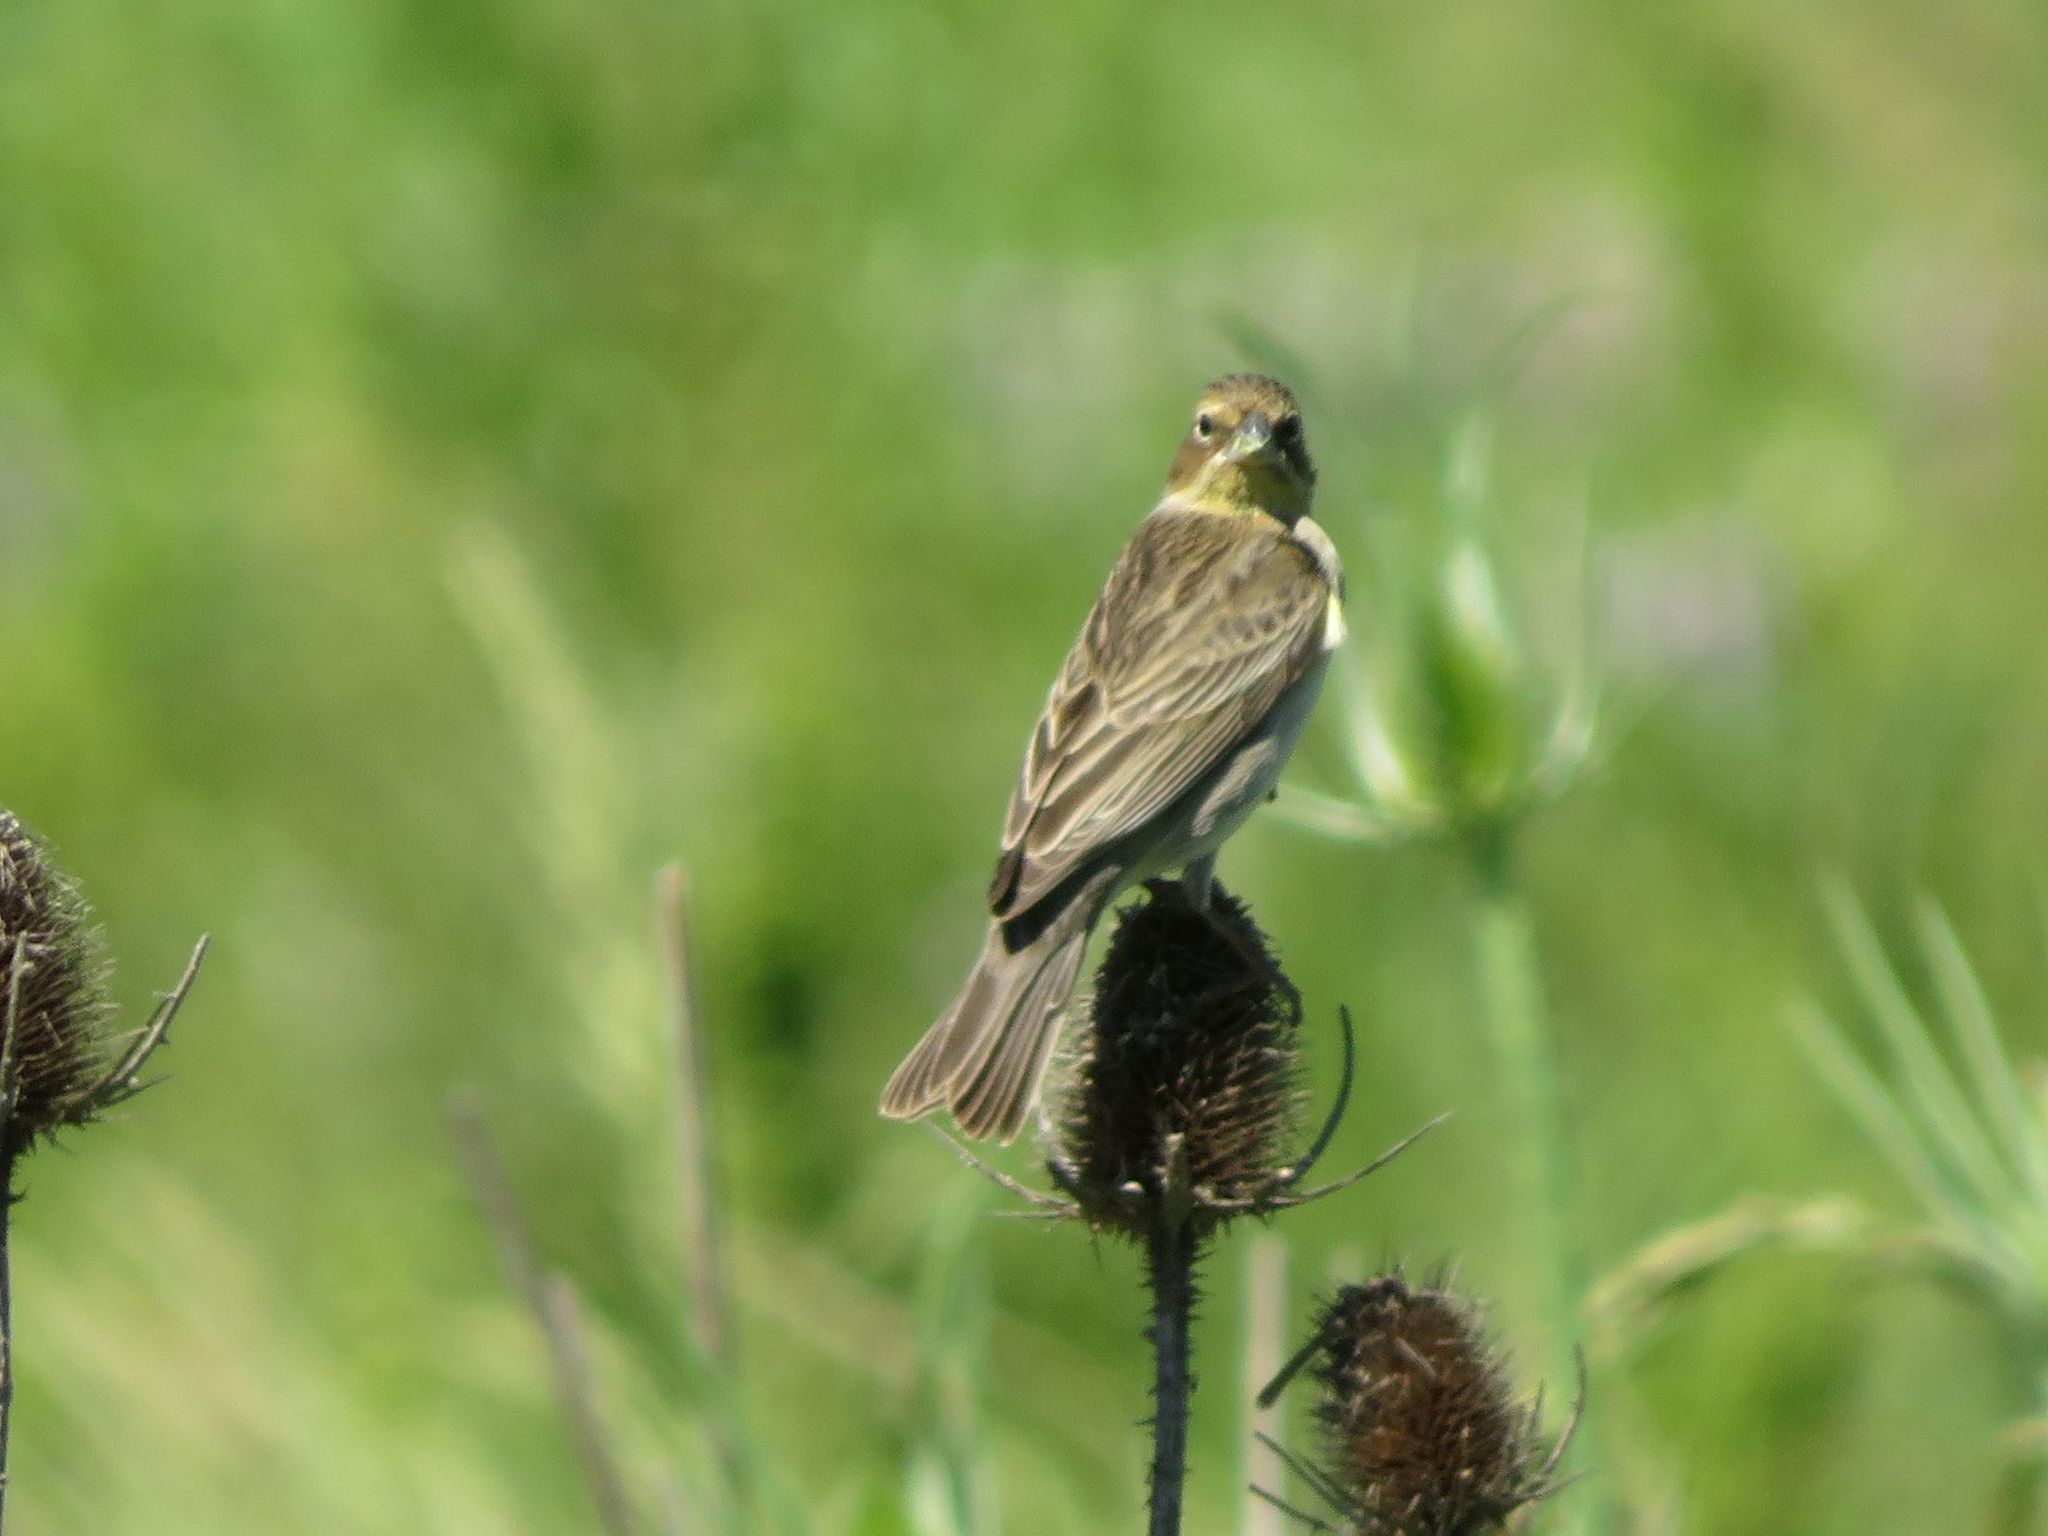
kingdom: Animalia
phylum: Chordata
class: Aves
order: Passeriformes
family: Thraupidae
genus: Sicalis
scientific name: Sicalis luteola
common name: Grassland yellow-finch
